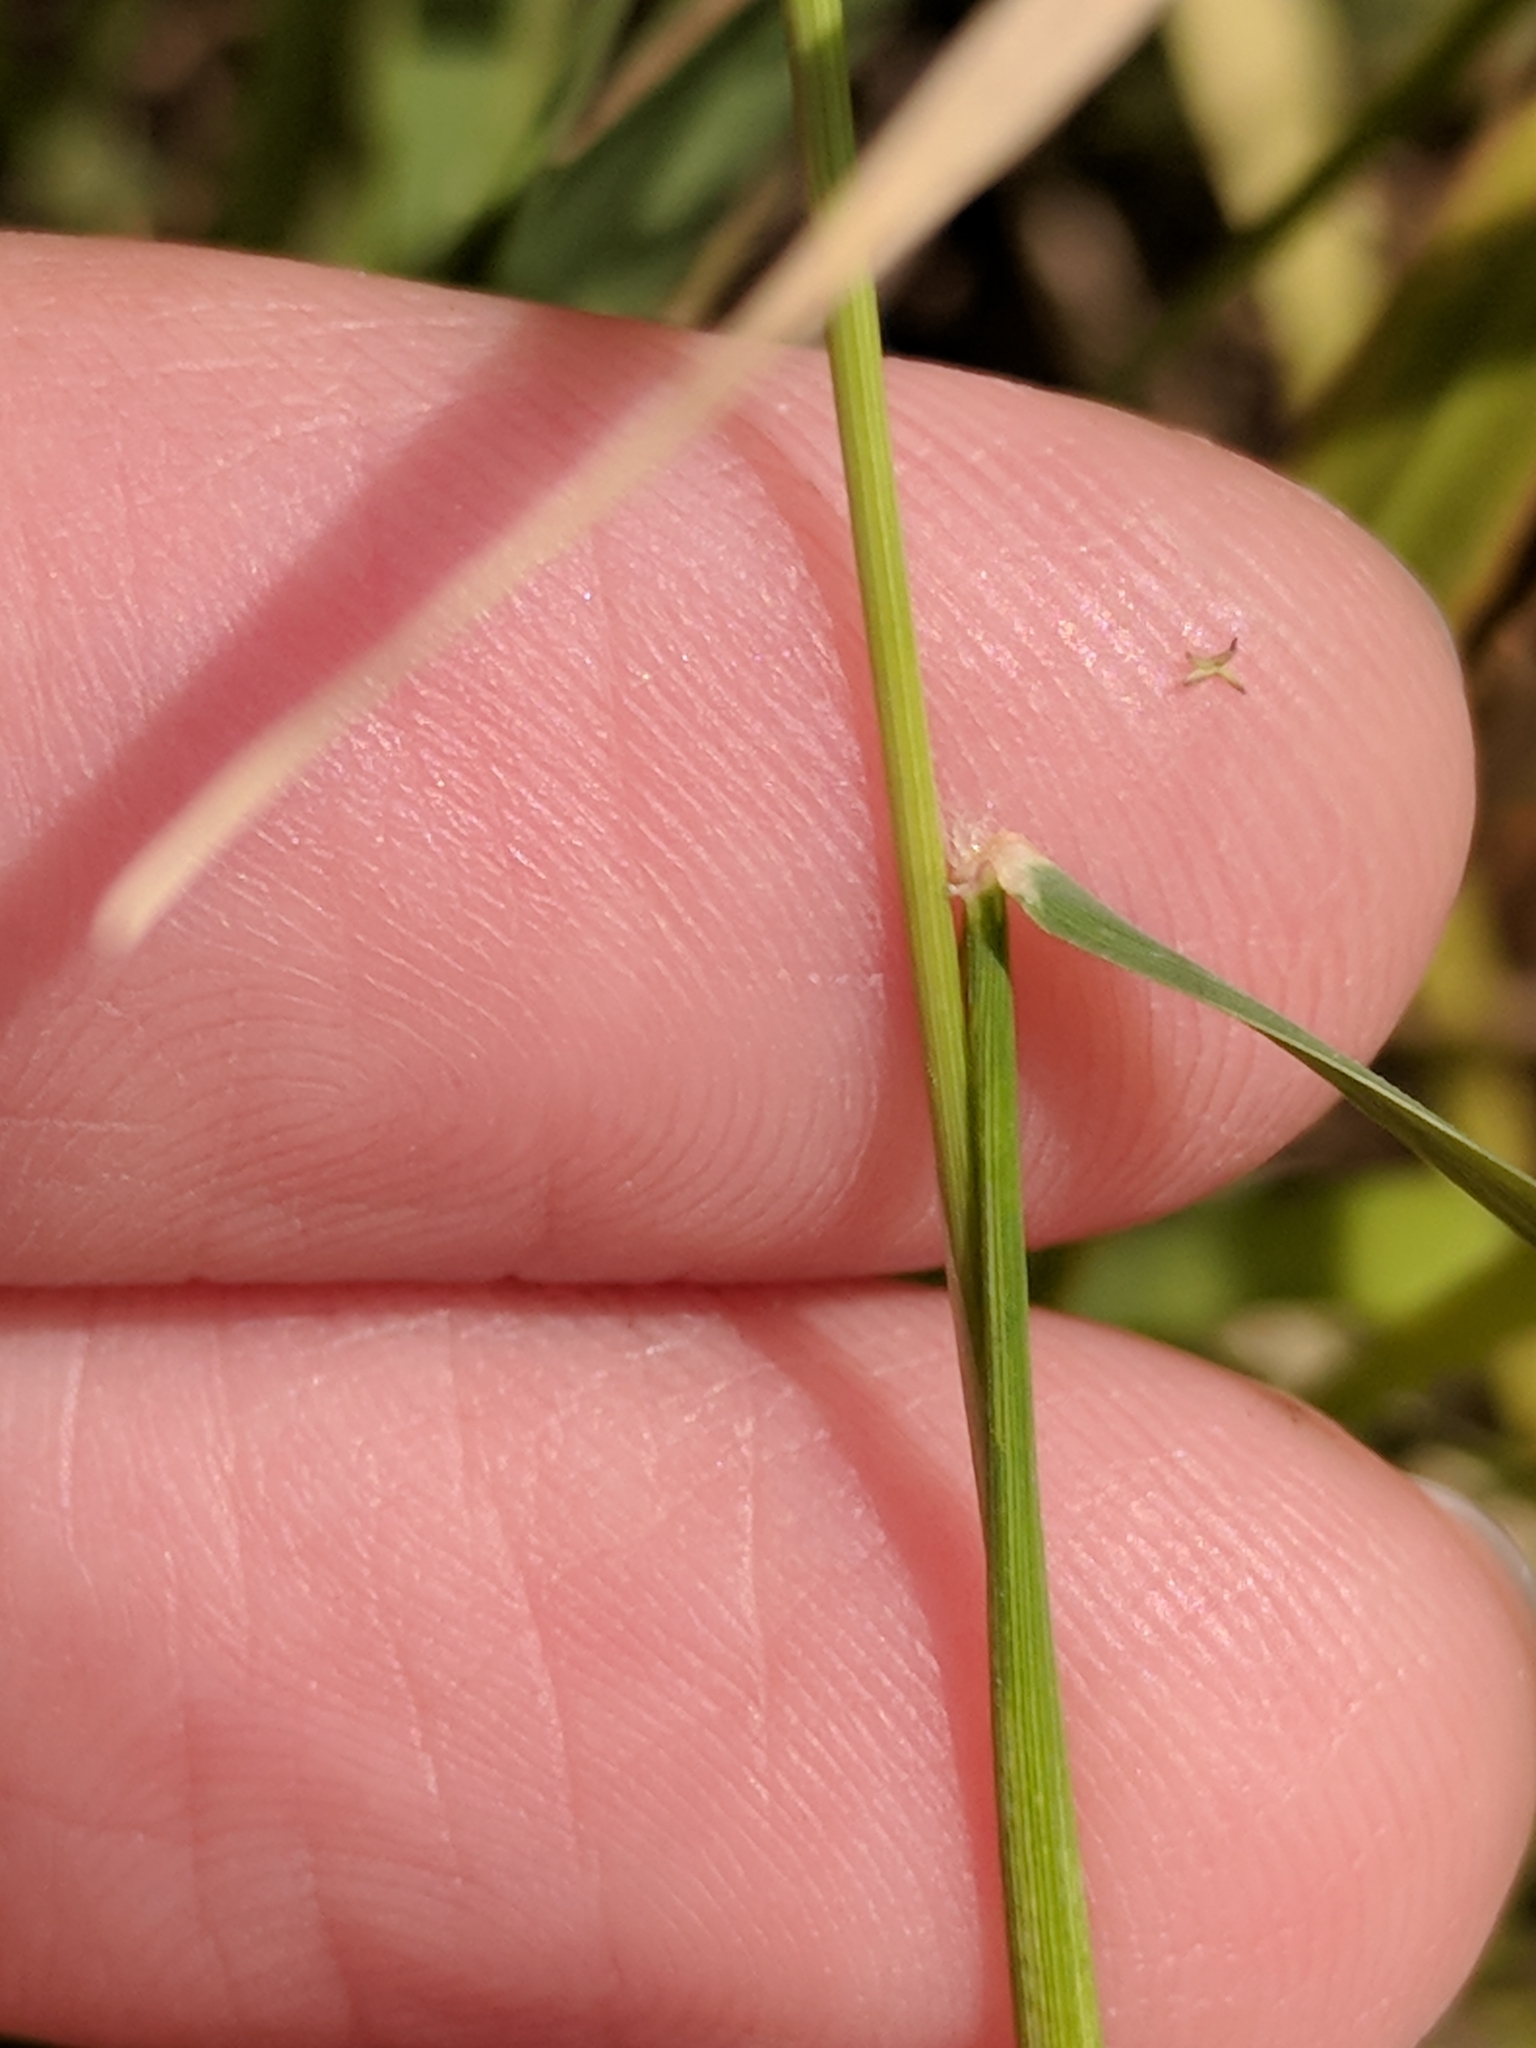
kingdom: Plantae
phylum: Tracheophyta
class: Liliopsida
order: Poales
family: Poaceae
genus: Cynodon
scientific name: Cynodon dactylon
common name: Bermuda grass
